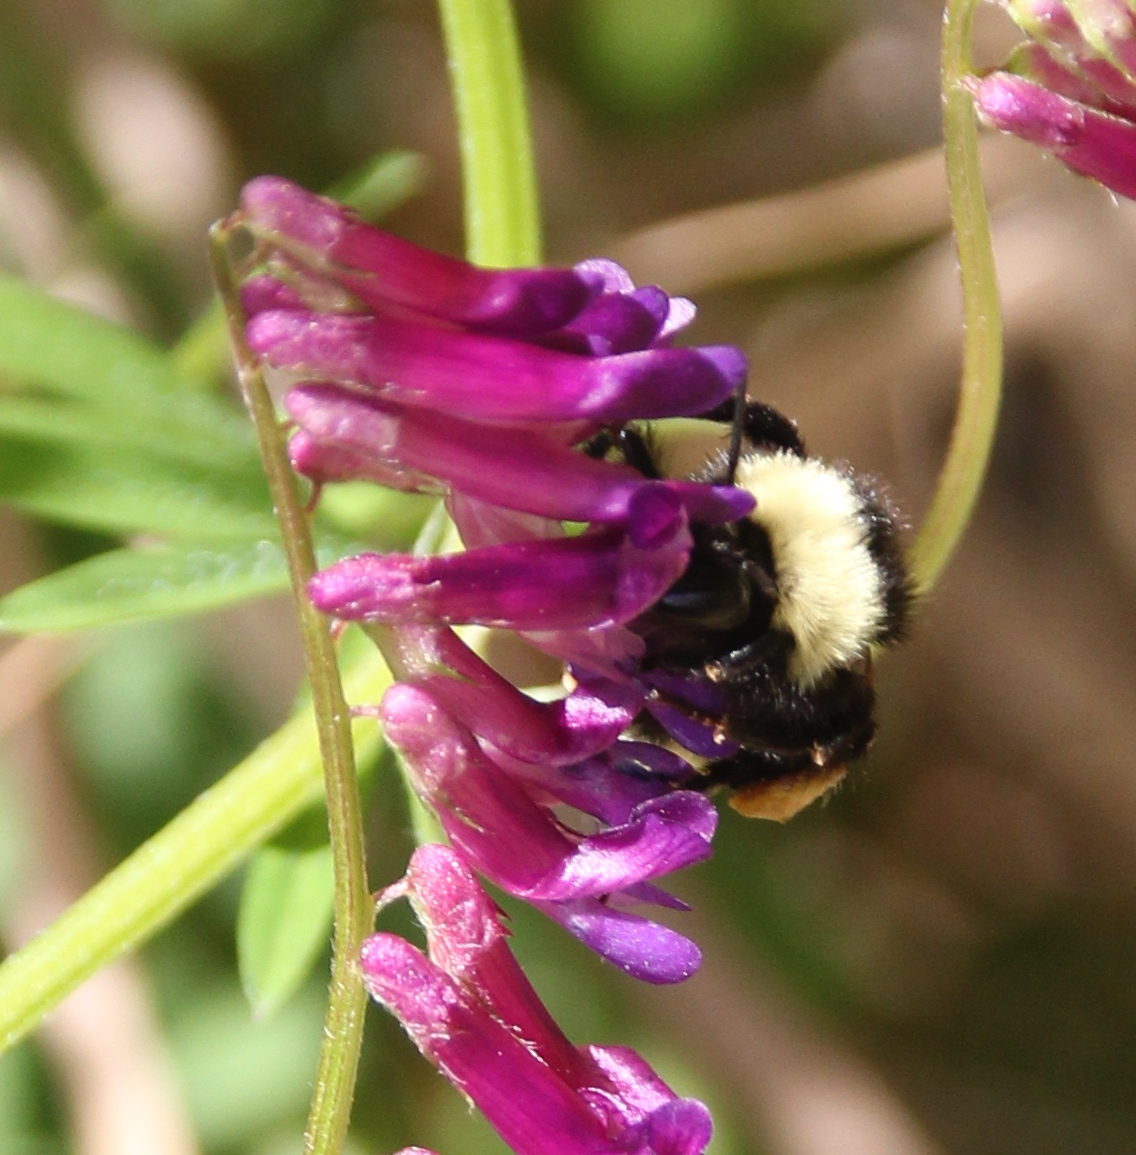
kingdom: Animalia
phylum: Arthropoda
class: Insecta
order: Hymenoptera
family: Apidae
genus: Bombus
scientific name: Bombus californicus
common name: California bumble bee
